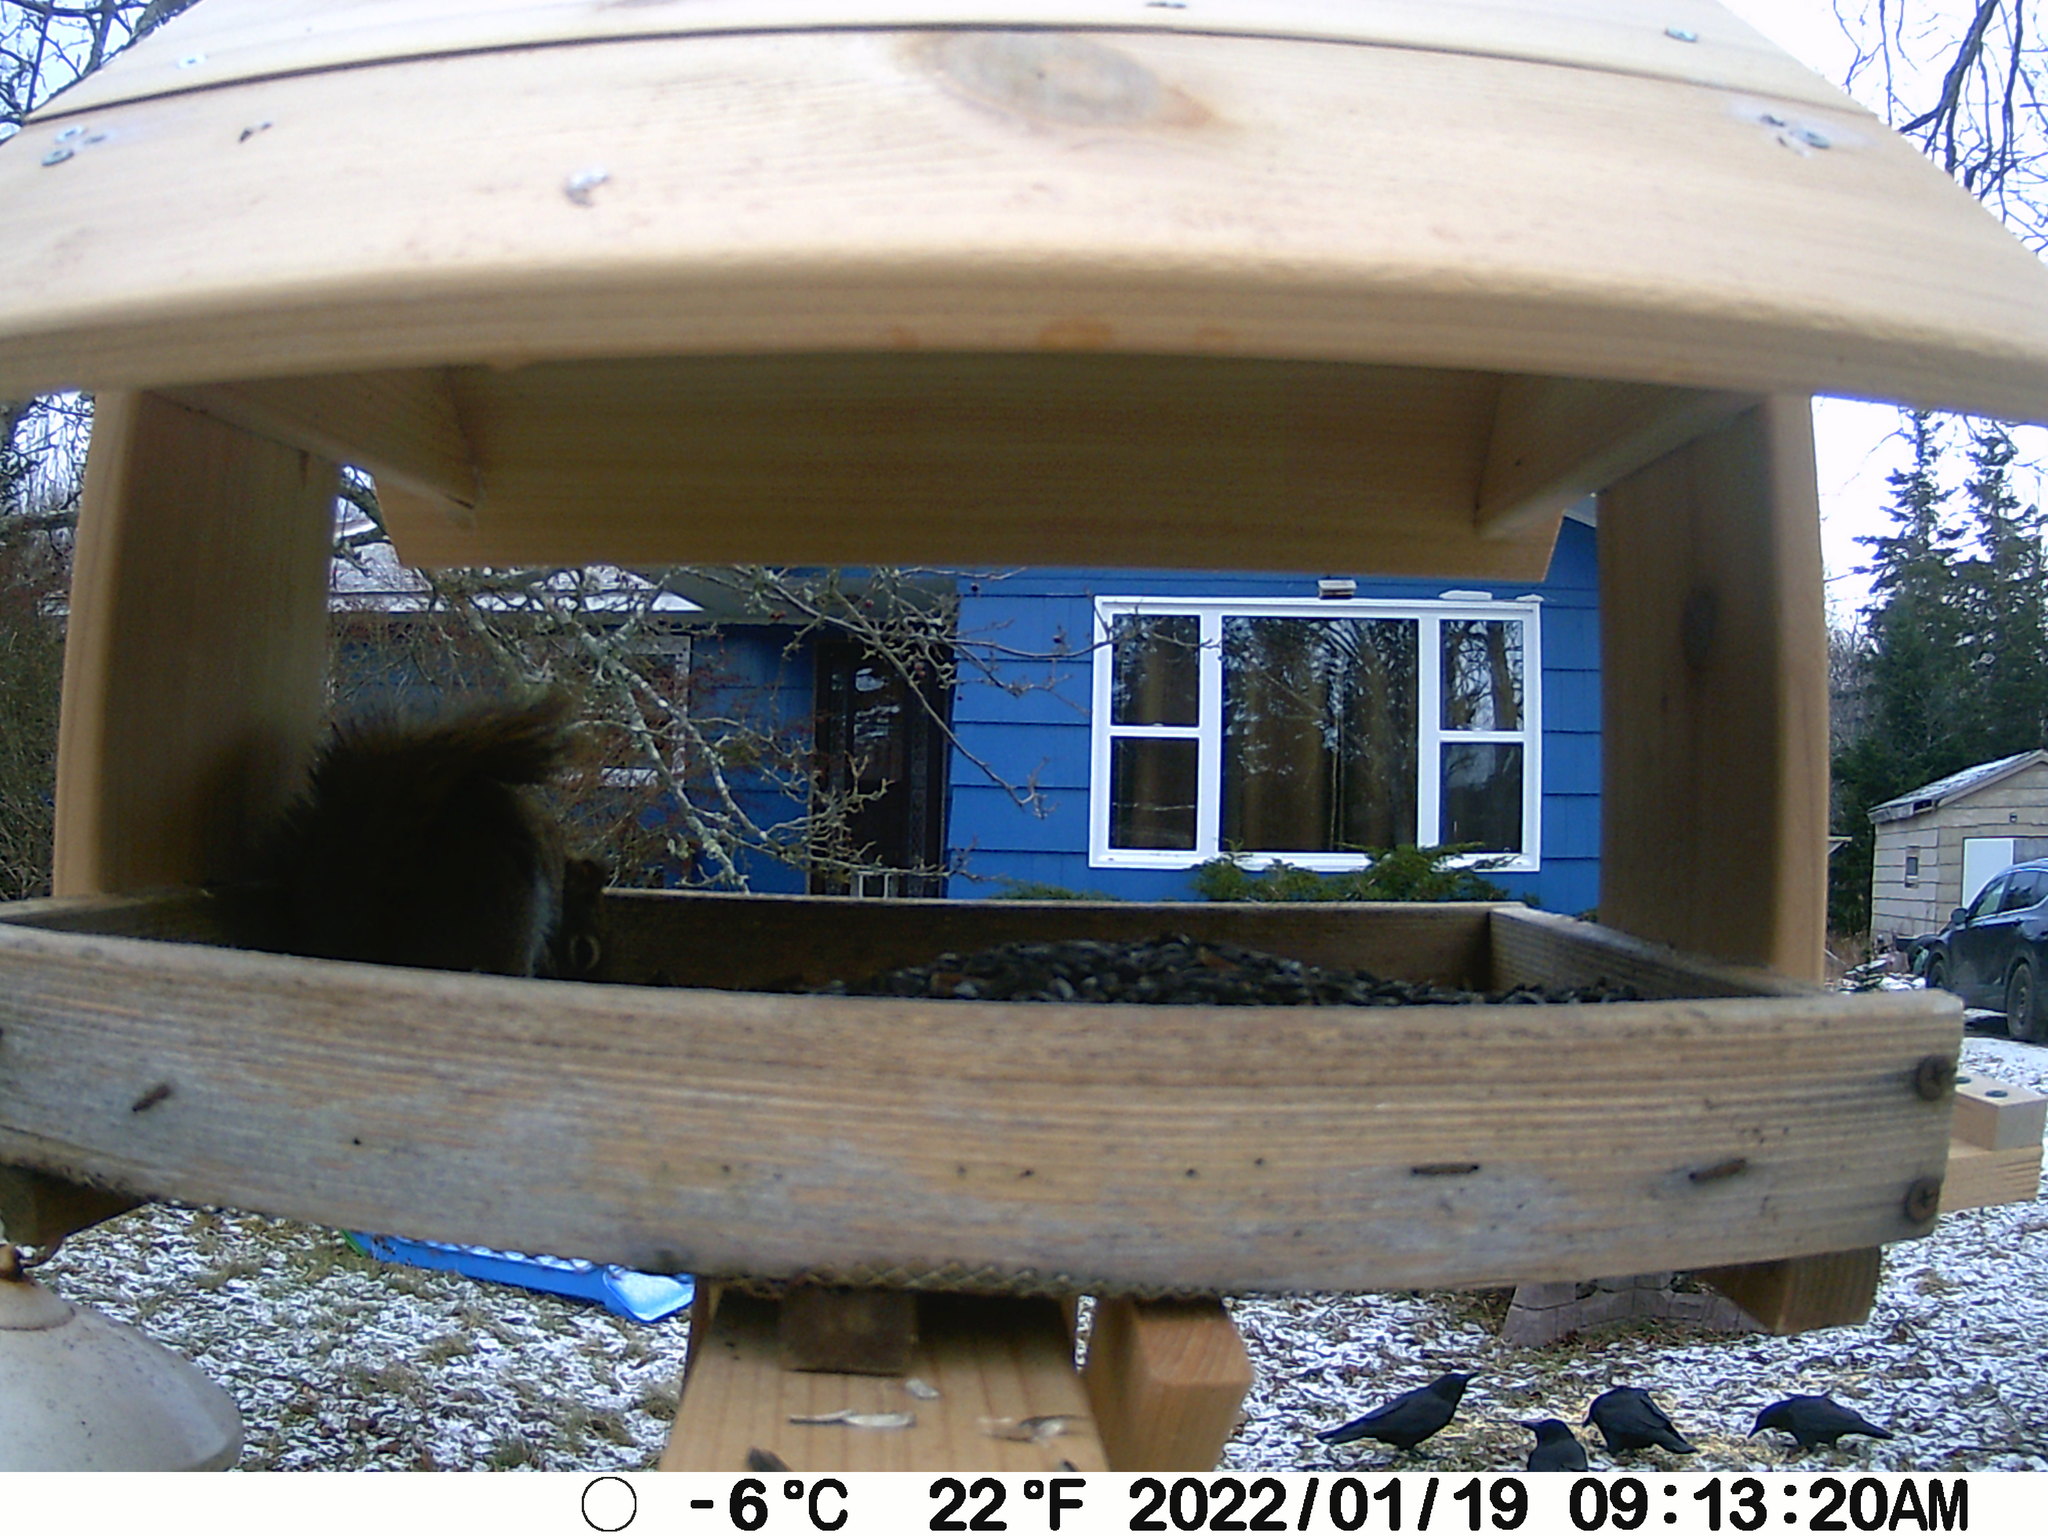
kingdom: Animalia
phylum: Chordata
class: Aves
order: Passeriformes
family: Corvidae
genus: Corvus
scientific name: Corvus brachyrhynchos
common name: American crow
